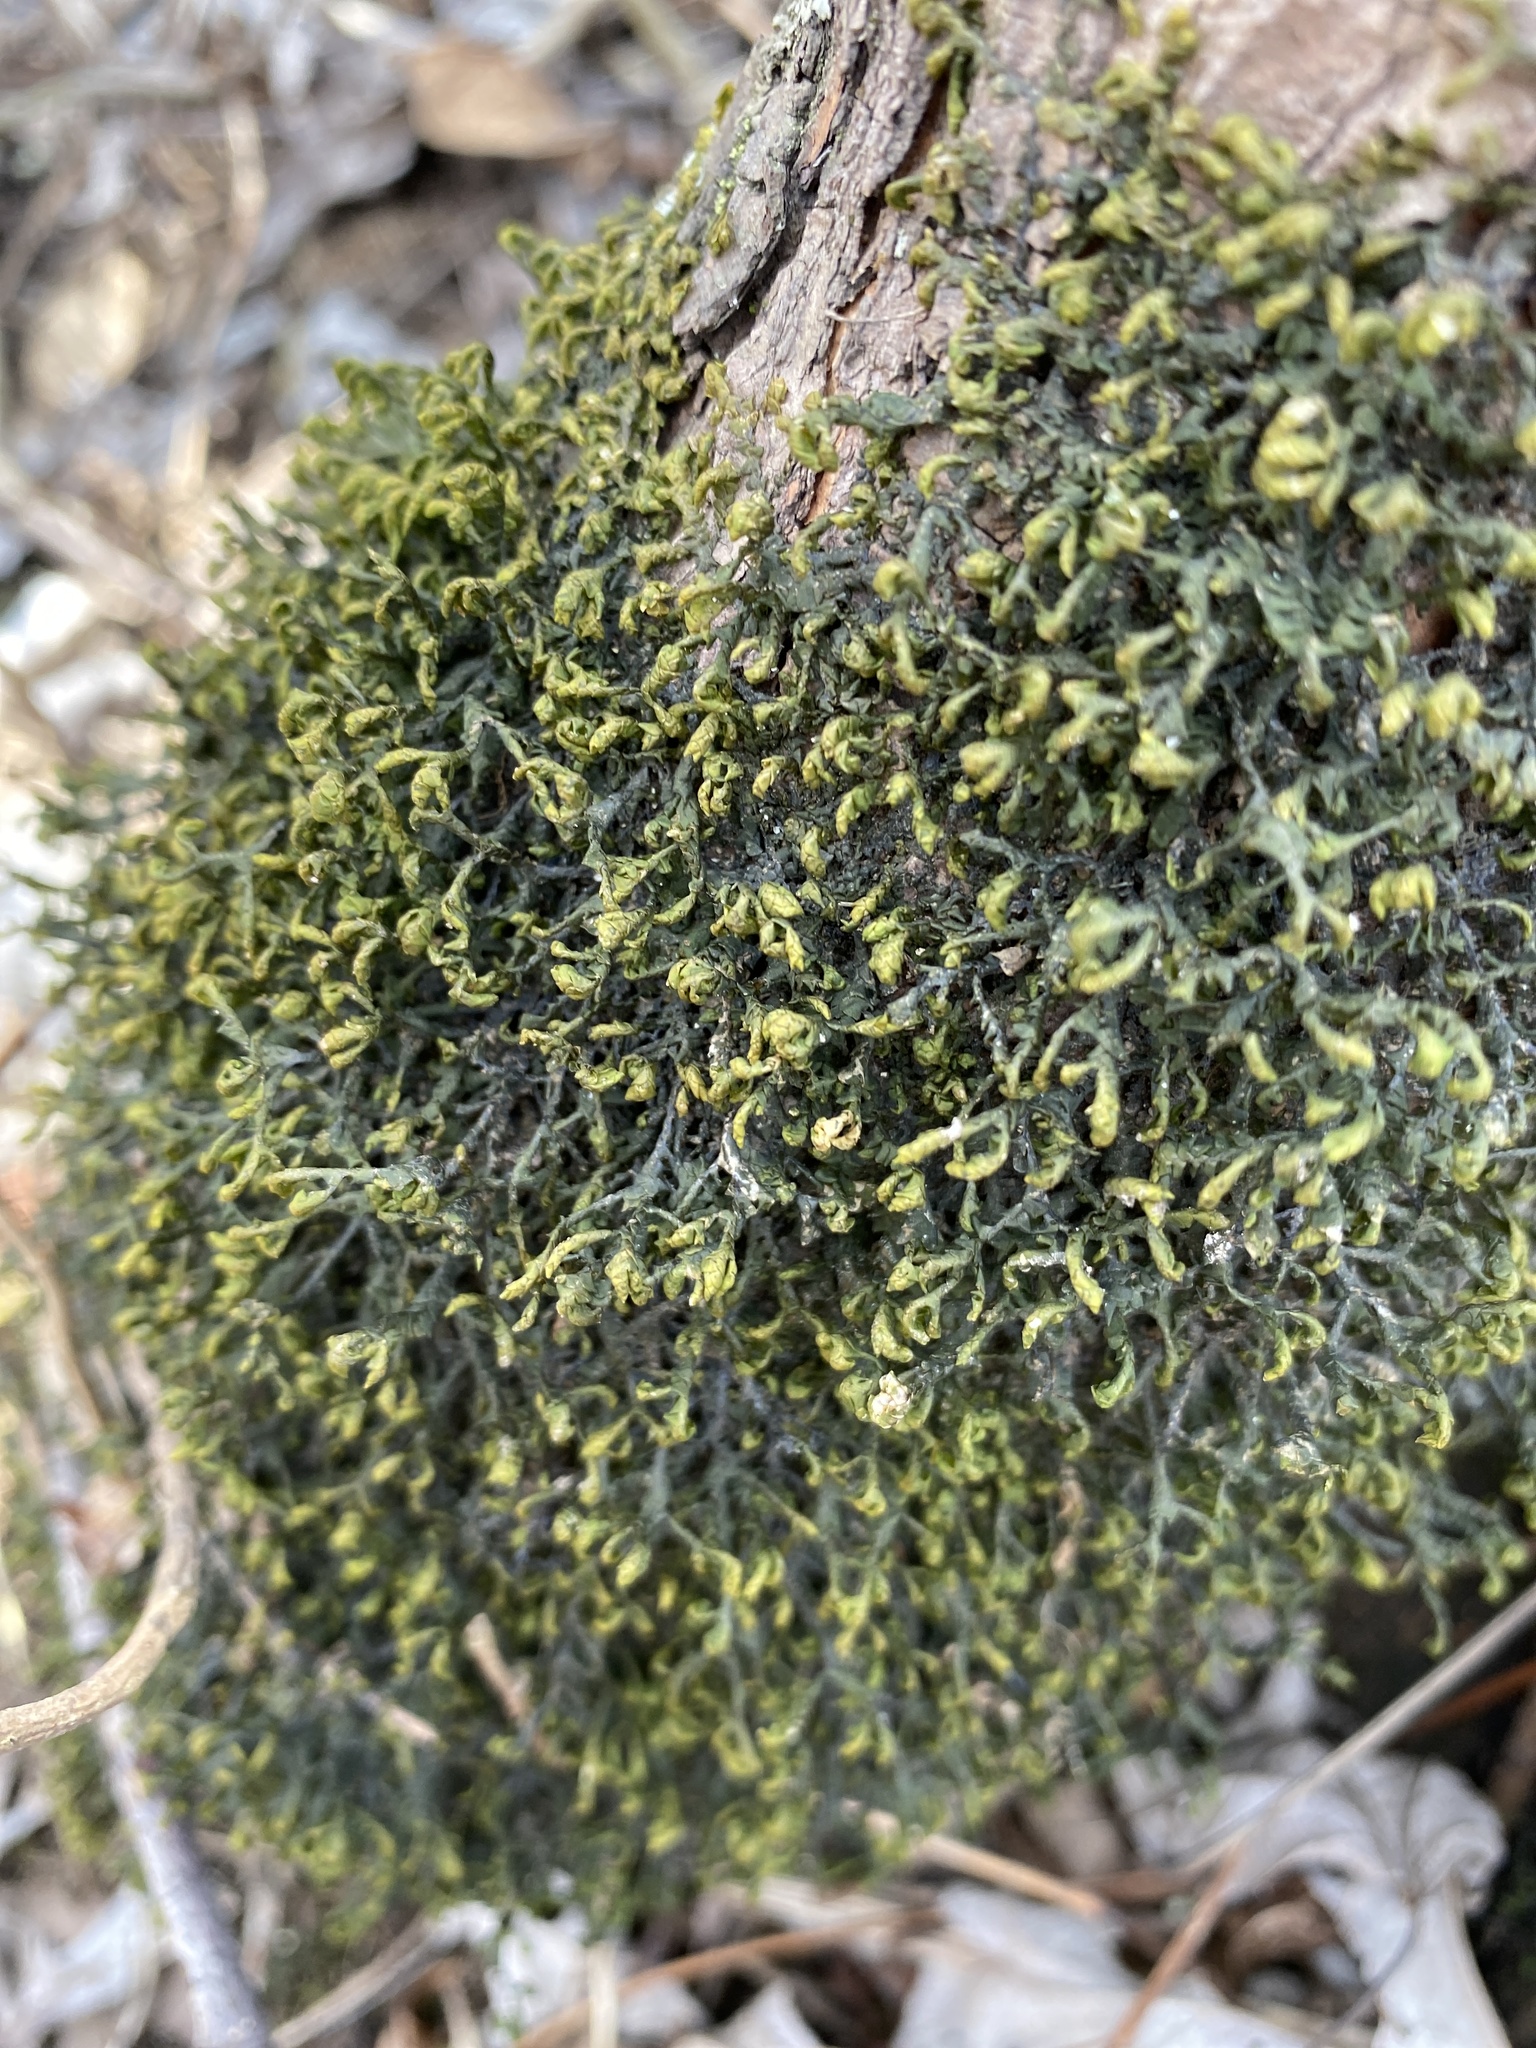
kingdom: Plantae
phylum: Marchantiophyta
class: Jungermanniopsida
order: Porellales
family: Porellaceae
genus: Porella
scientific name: Porella platyphylla
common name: Wall scalewort
